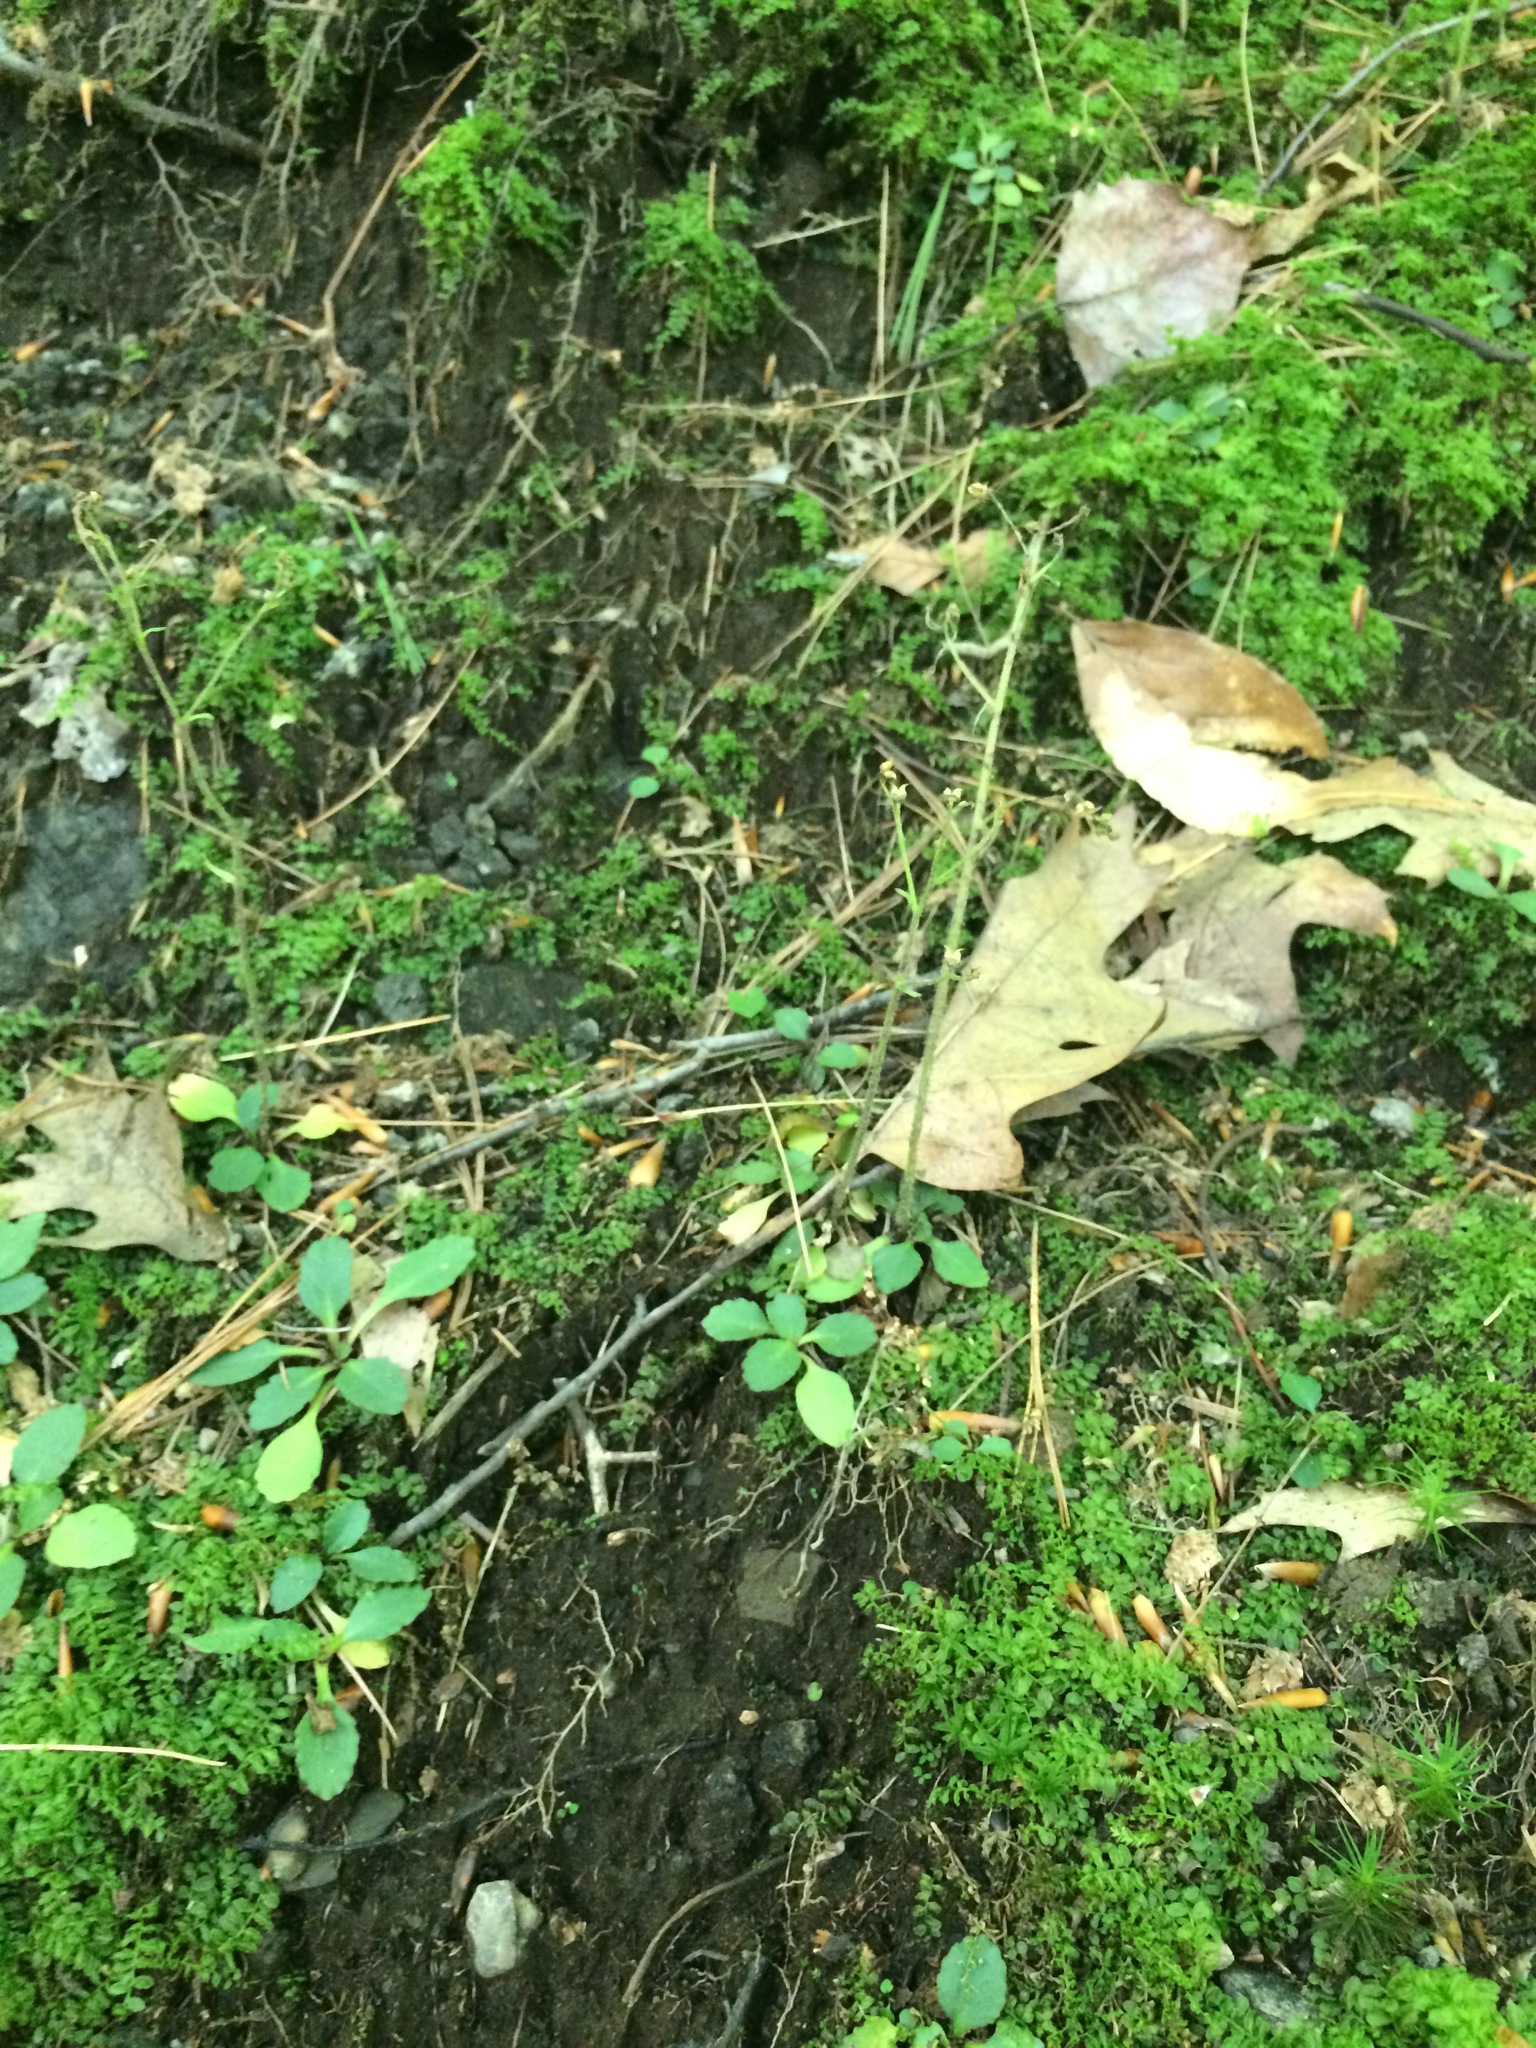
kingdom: Plantae
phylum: Tracheophyta
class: Magnoliopsida
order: Saxifragales
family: Saxifragaceae
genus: Micranthes
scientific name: Micranthes virginiensis
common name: Early saxifrage
